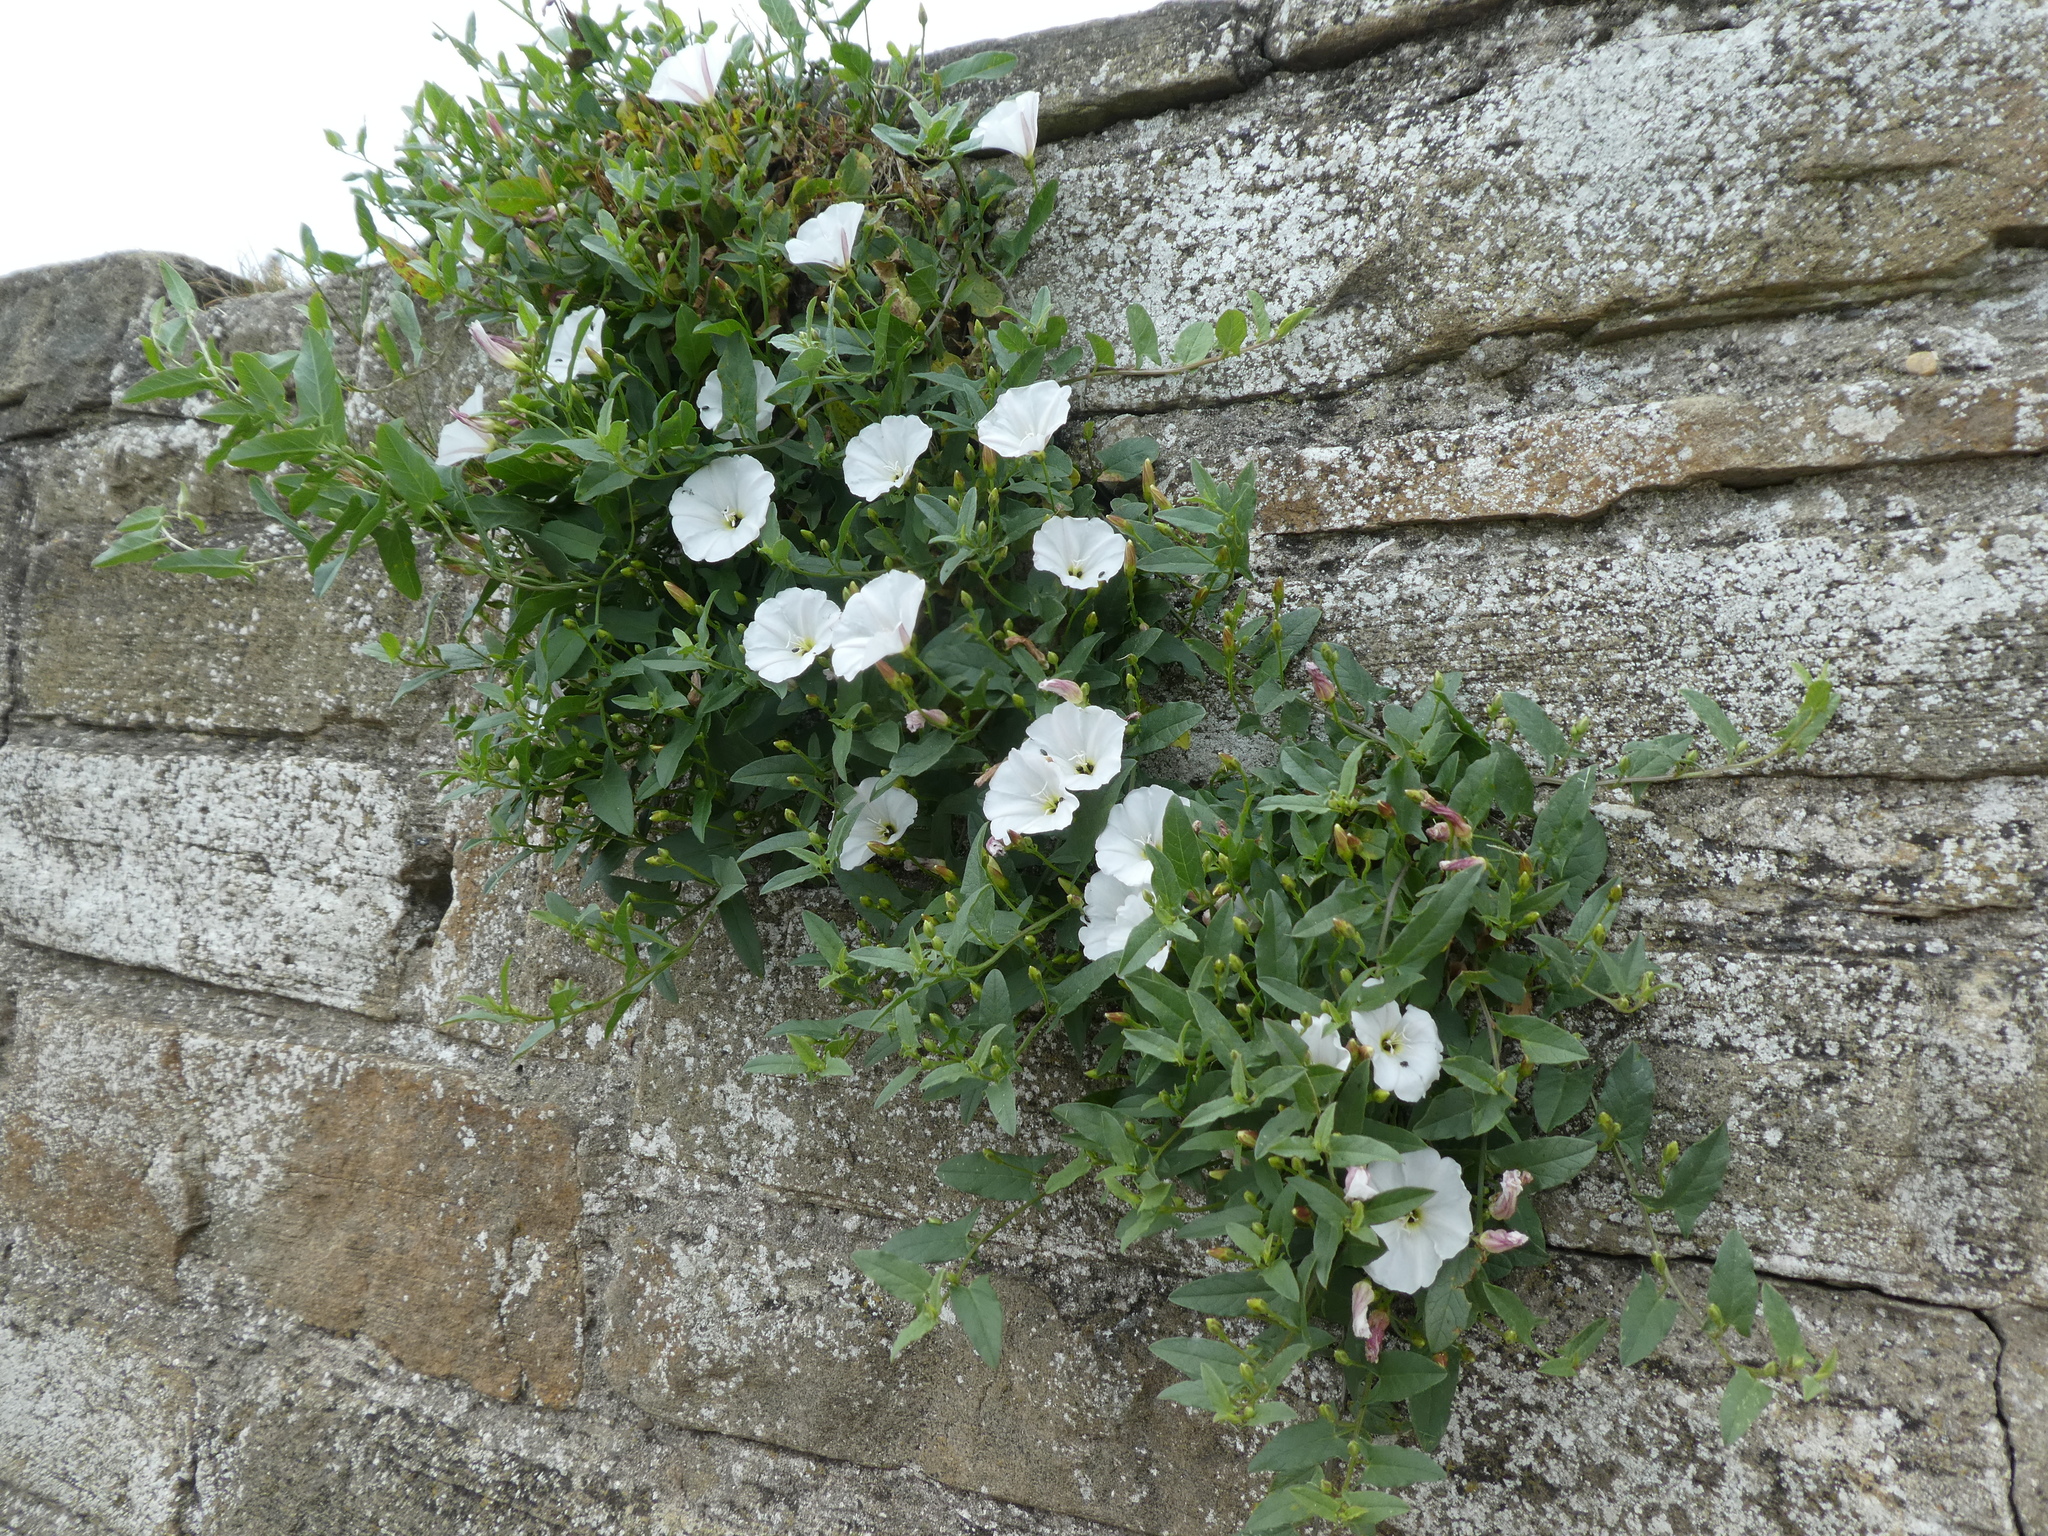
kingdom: Plantae
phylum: Tracheophyta
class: Magnoliopsida
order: Solanales
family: Convolvulaceae
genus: Convolvulus
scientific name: Convolvulus arvensis
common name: Field bindweed
